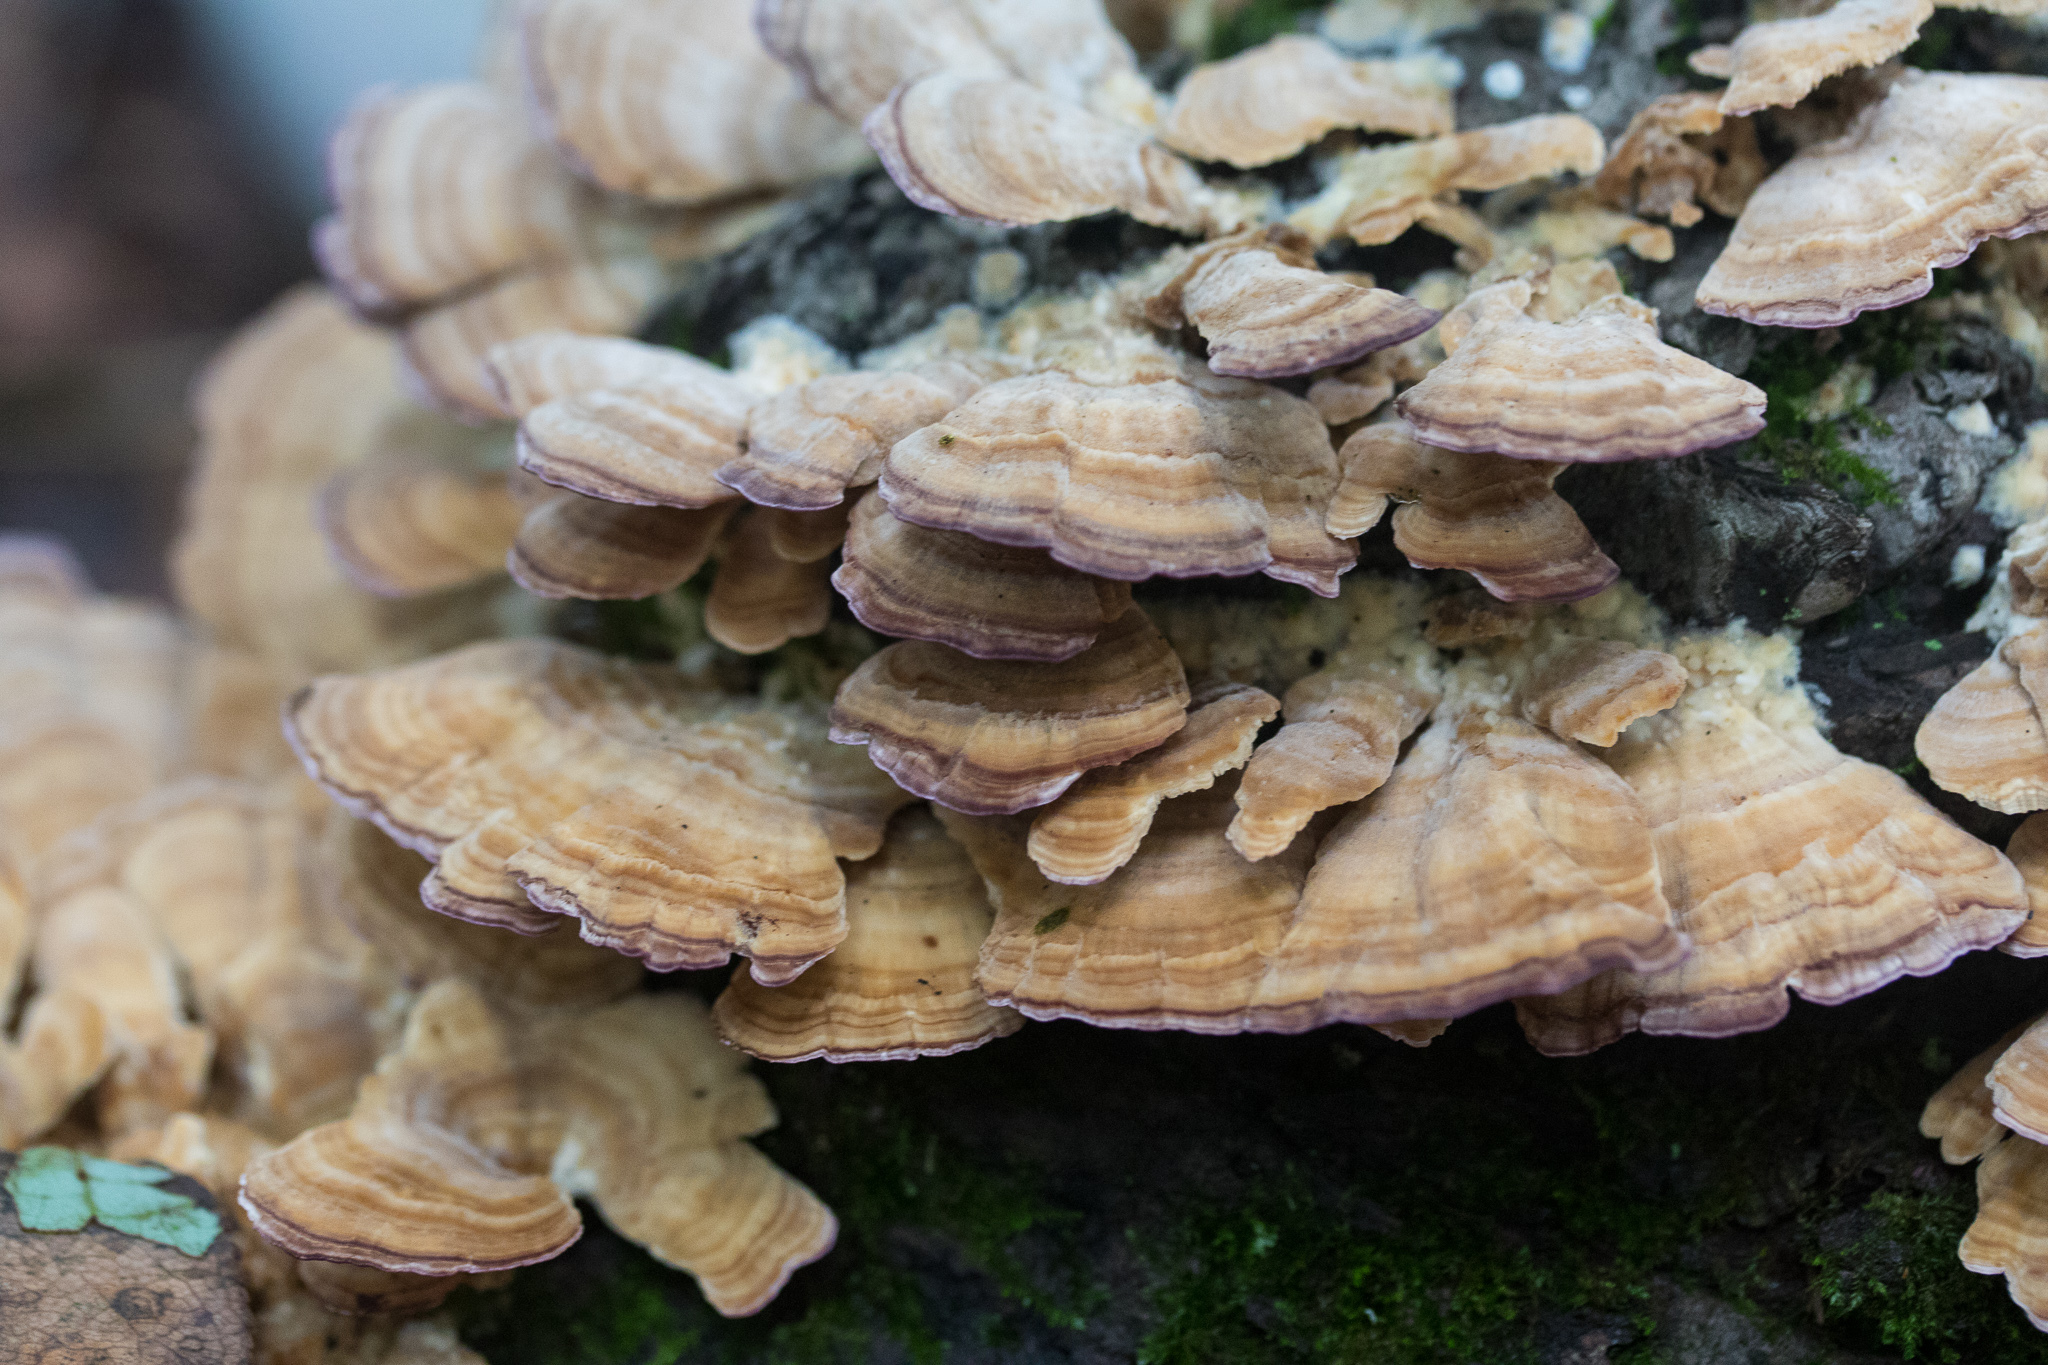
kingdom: Fungi
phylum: Basidiomycota
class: Agaricomycetes
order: Hymenochaetales
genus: Trichaptum
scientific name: Trichaptum biforme
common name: Violet-toothed polypore
